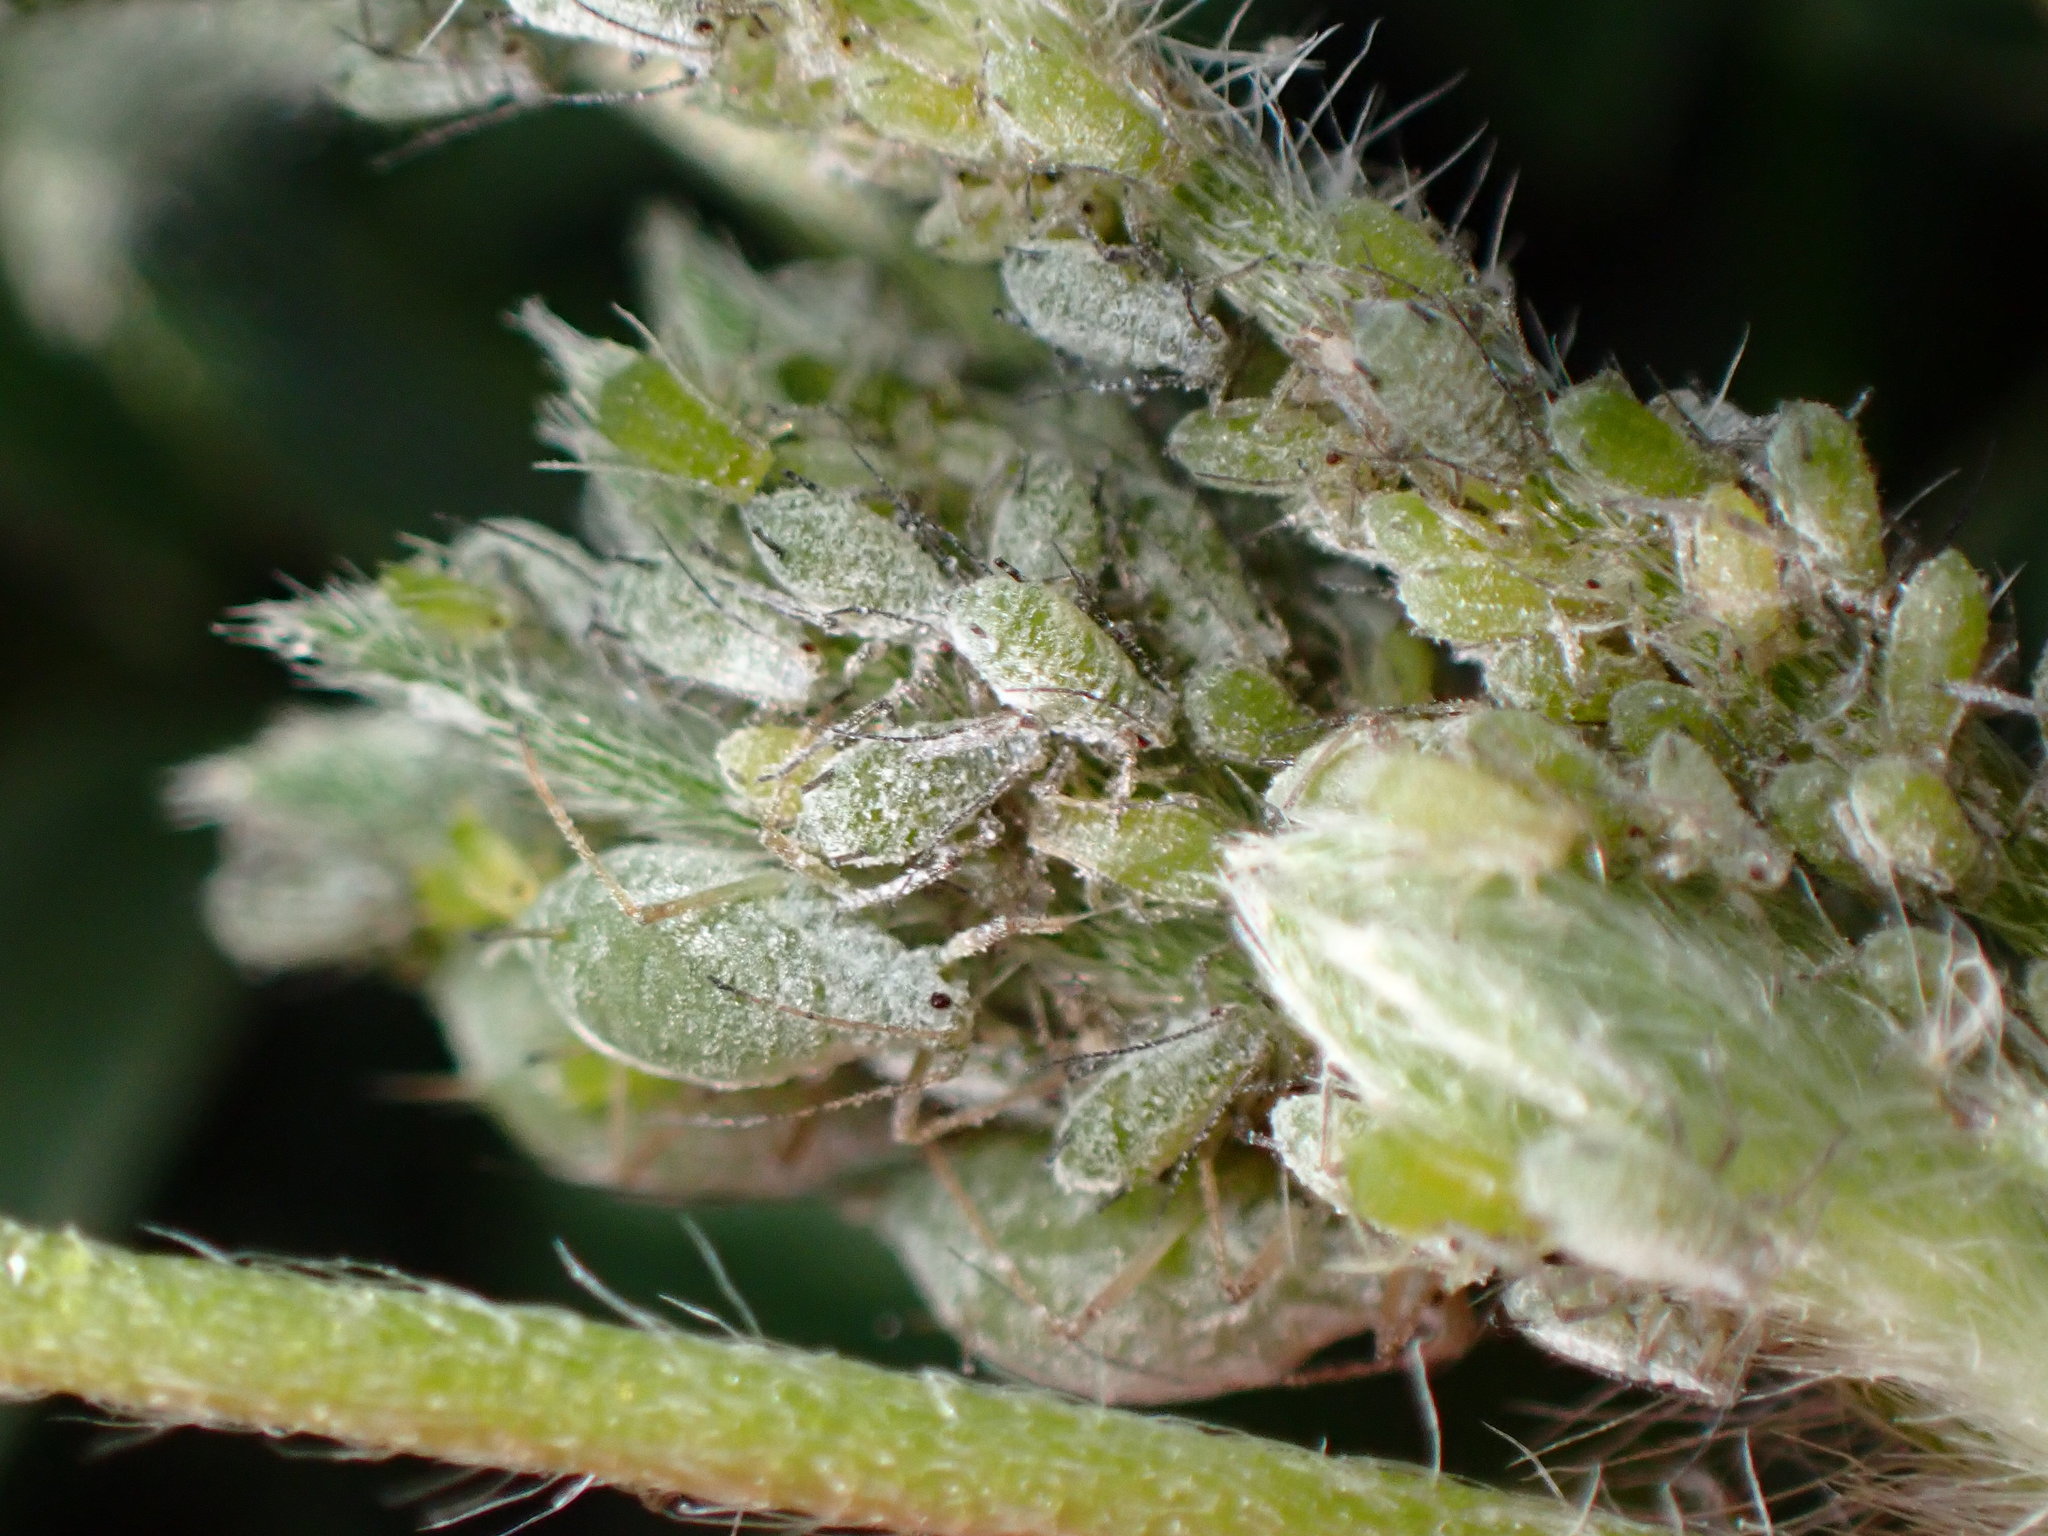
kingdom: Animalia
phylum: Arthropoda
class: Insecta
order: Hemiptera
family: Aphididae
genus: Macrosiphum
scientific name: Macrosiphum albifrons
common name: Lupine aphid
